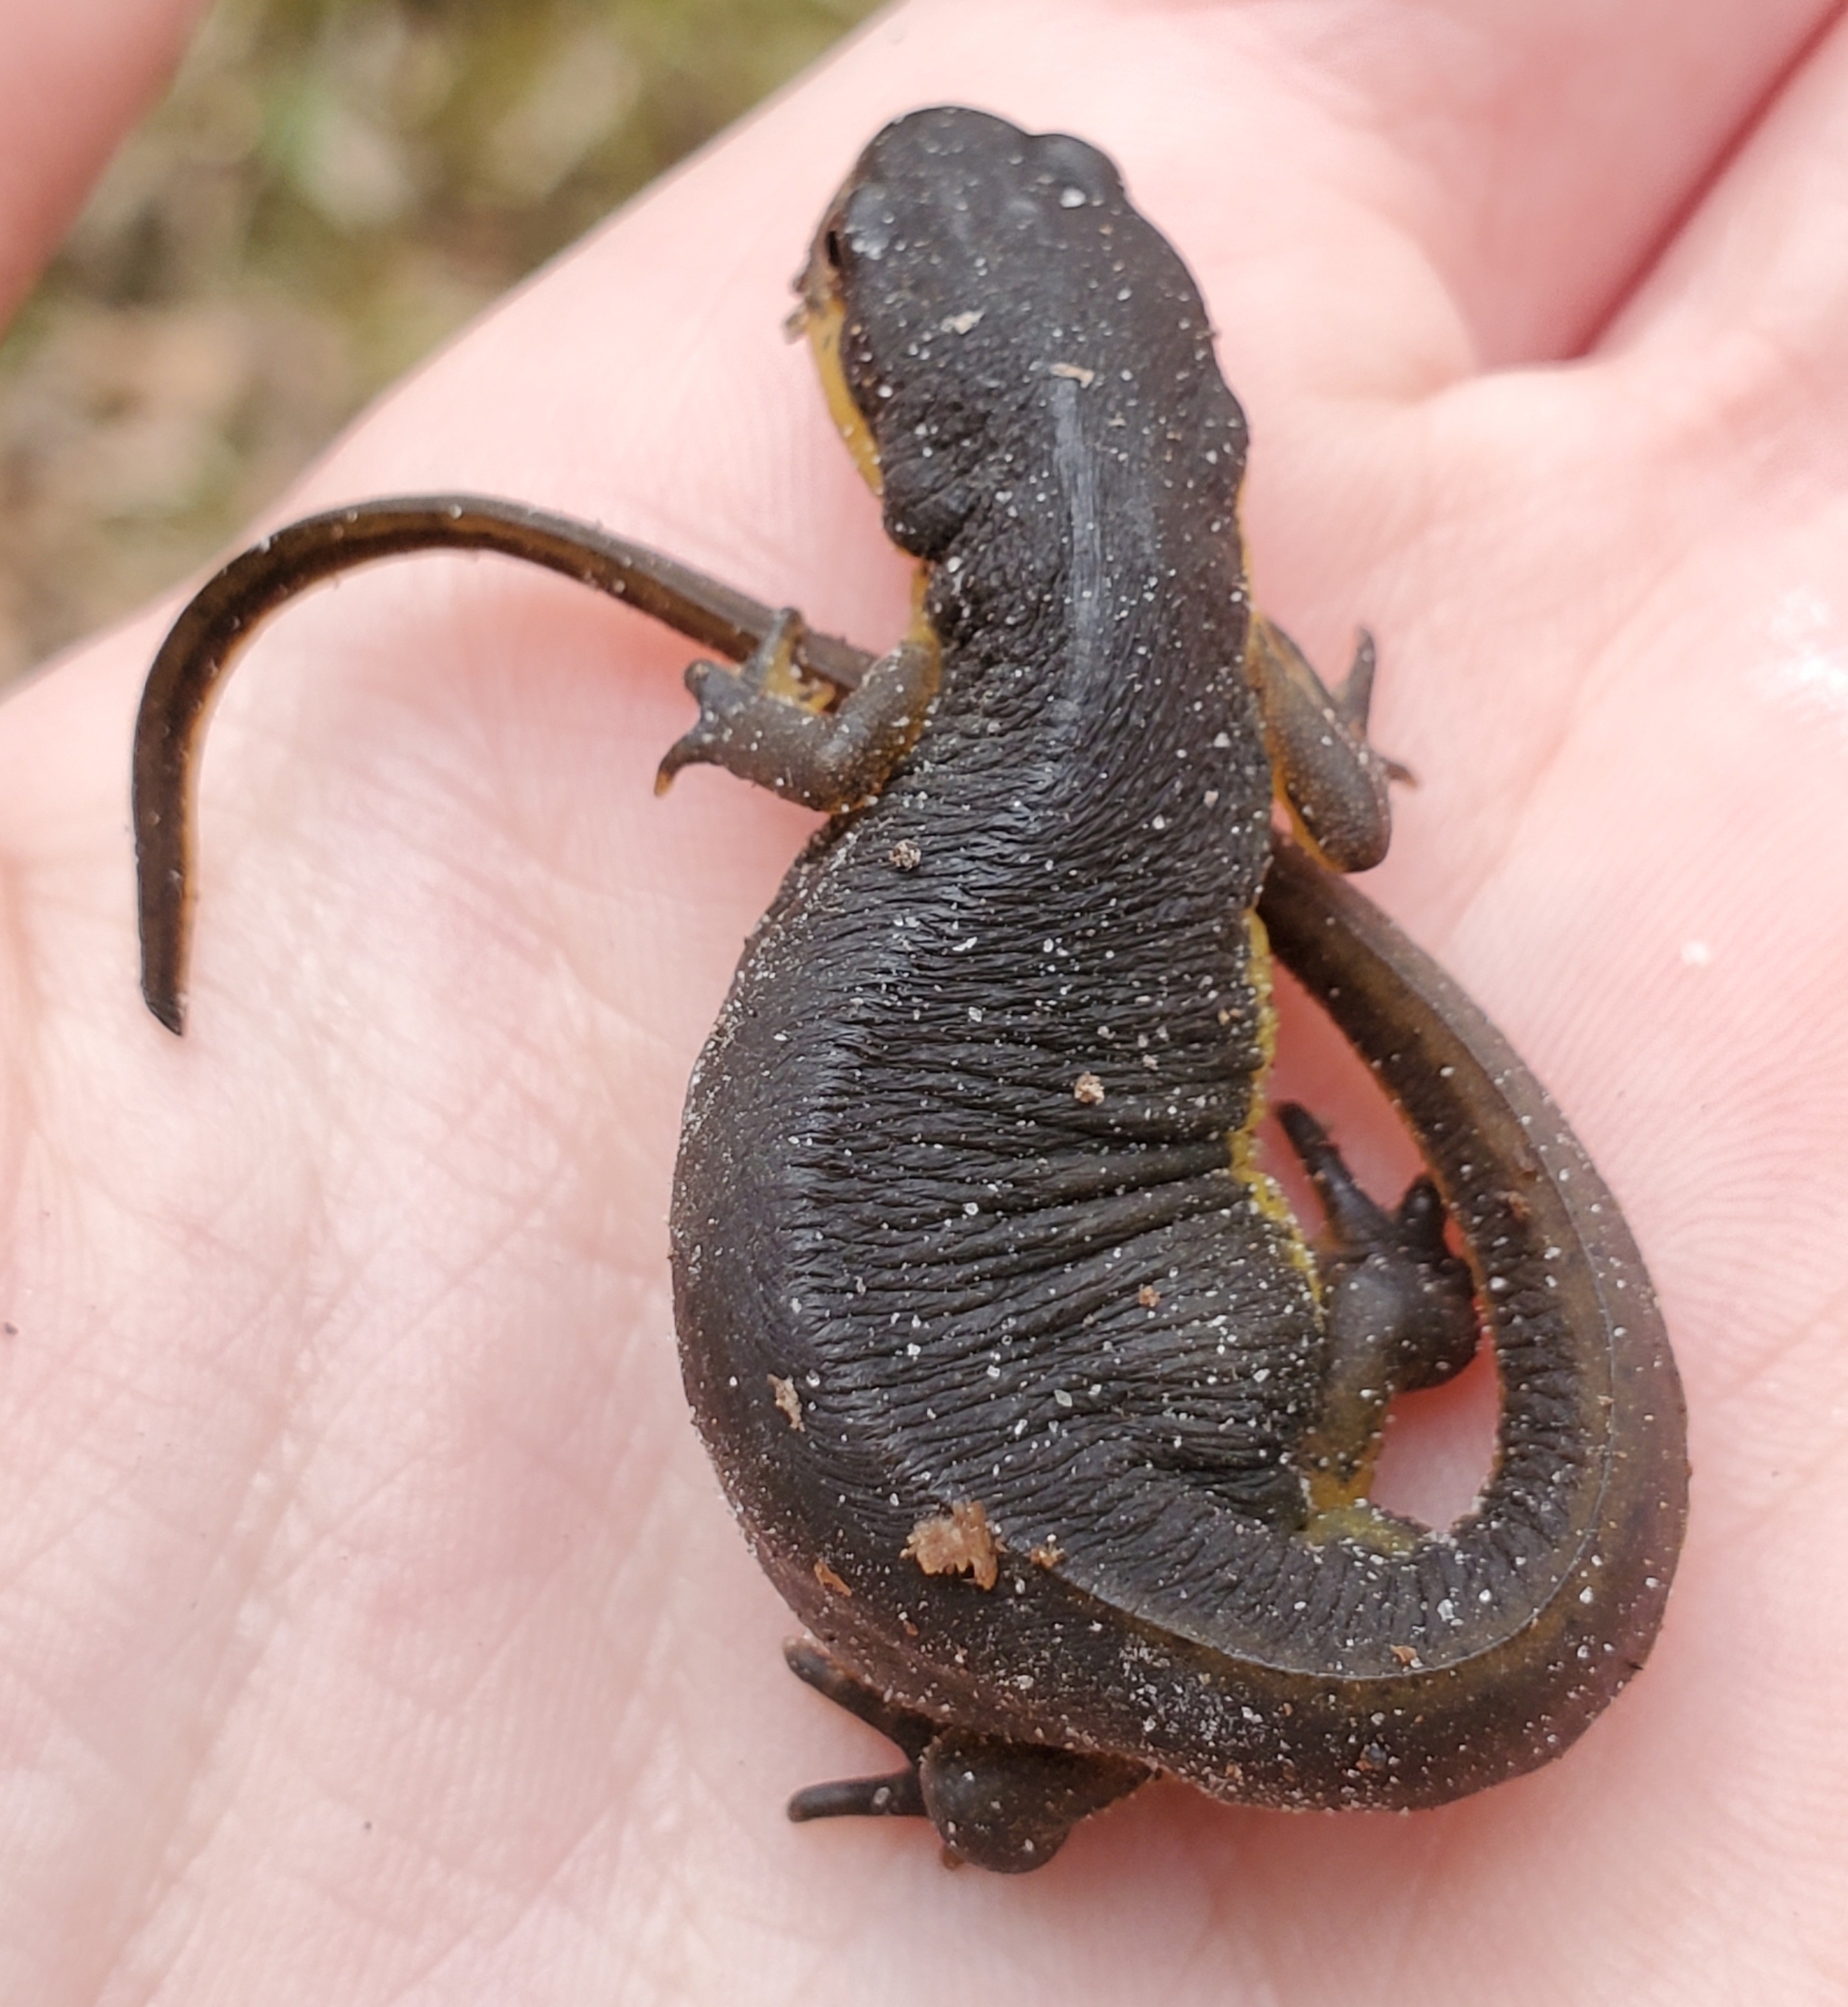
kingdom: Animalia
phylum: Chordata
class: Amphibia
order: Caudata
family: Salamandridae
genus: Notophthalmus
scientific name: Notophthalmus viridescens
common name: Eastern newt
